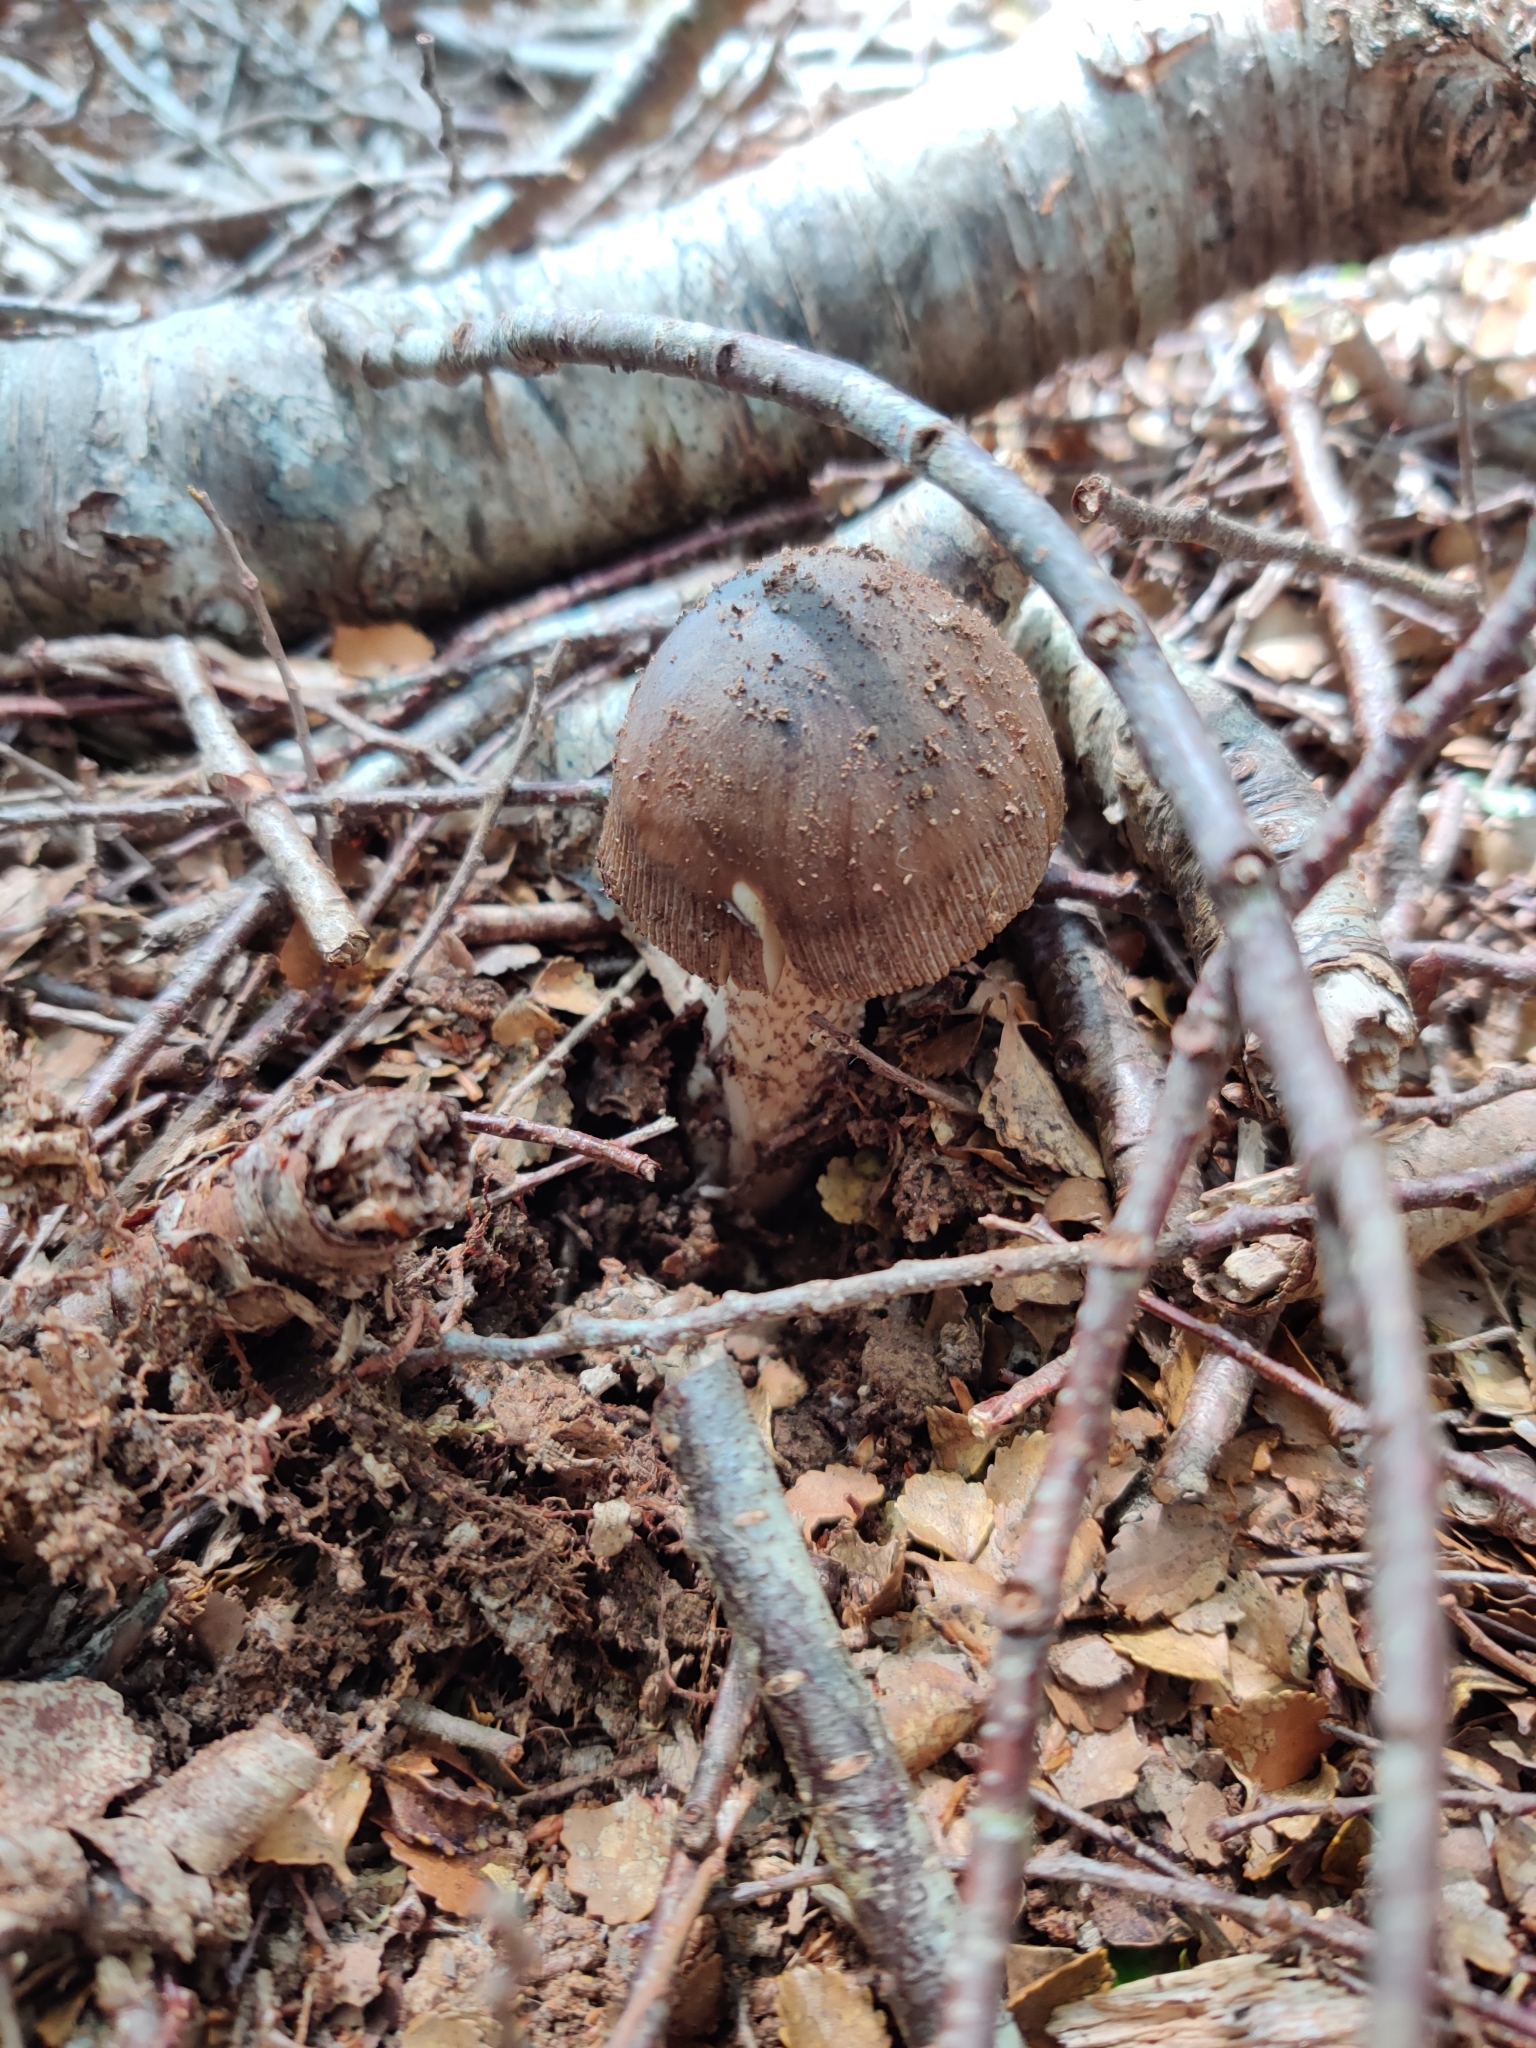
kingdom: Fungi
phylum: Basidiomycota
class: Agaricomycetes
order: Agaricales
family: Amanitaceae
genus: Amanita
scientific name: Amanita pekeoides
